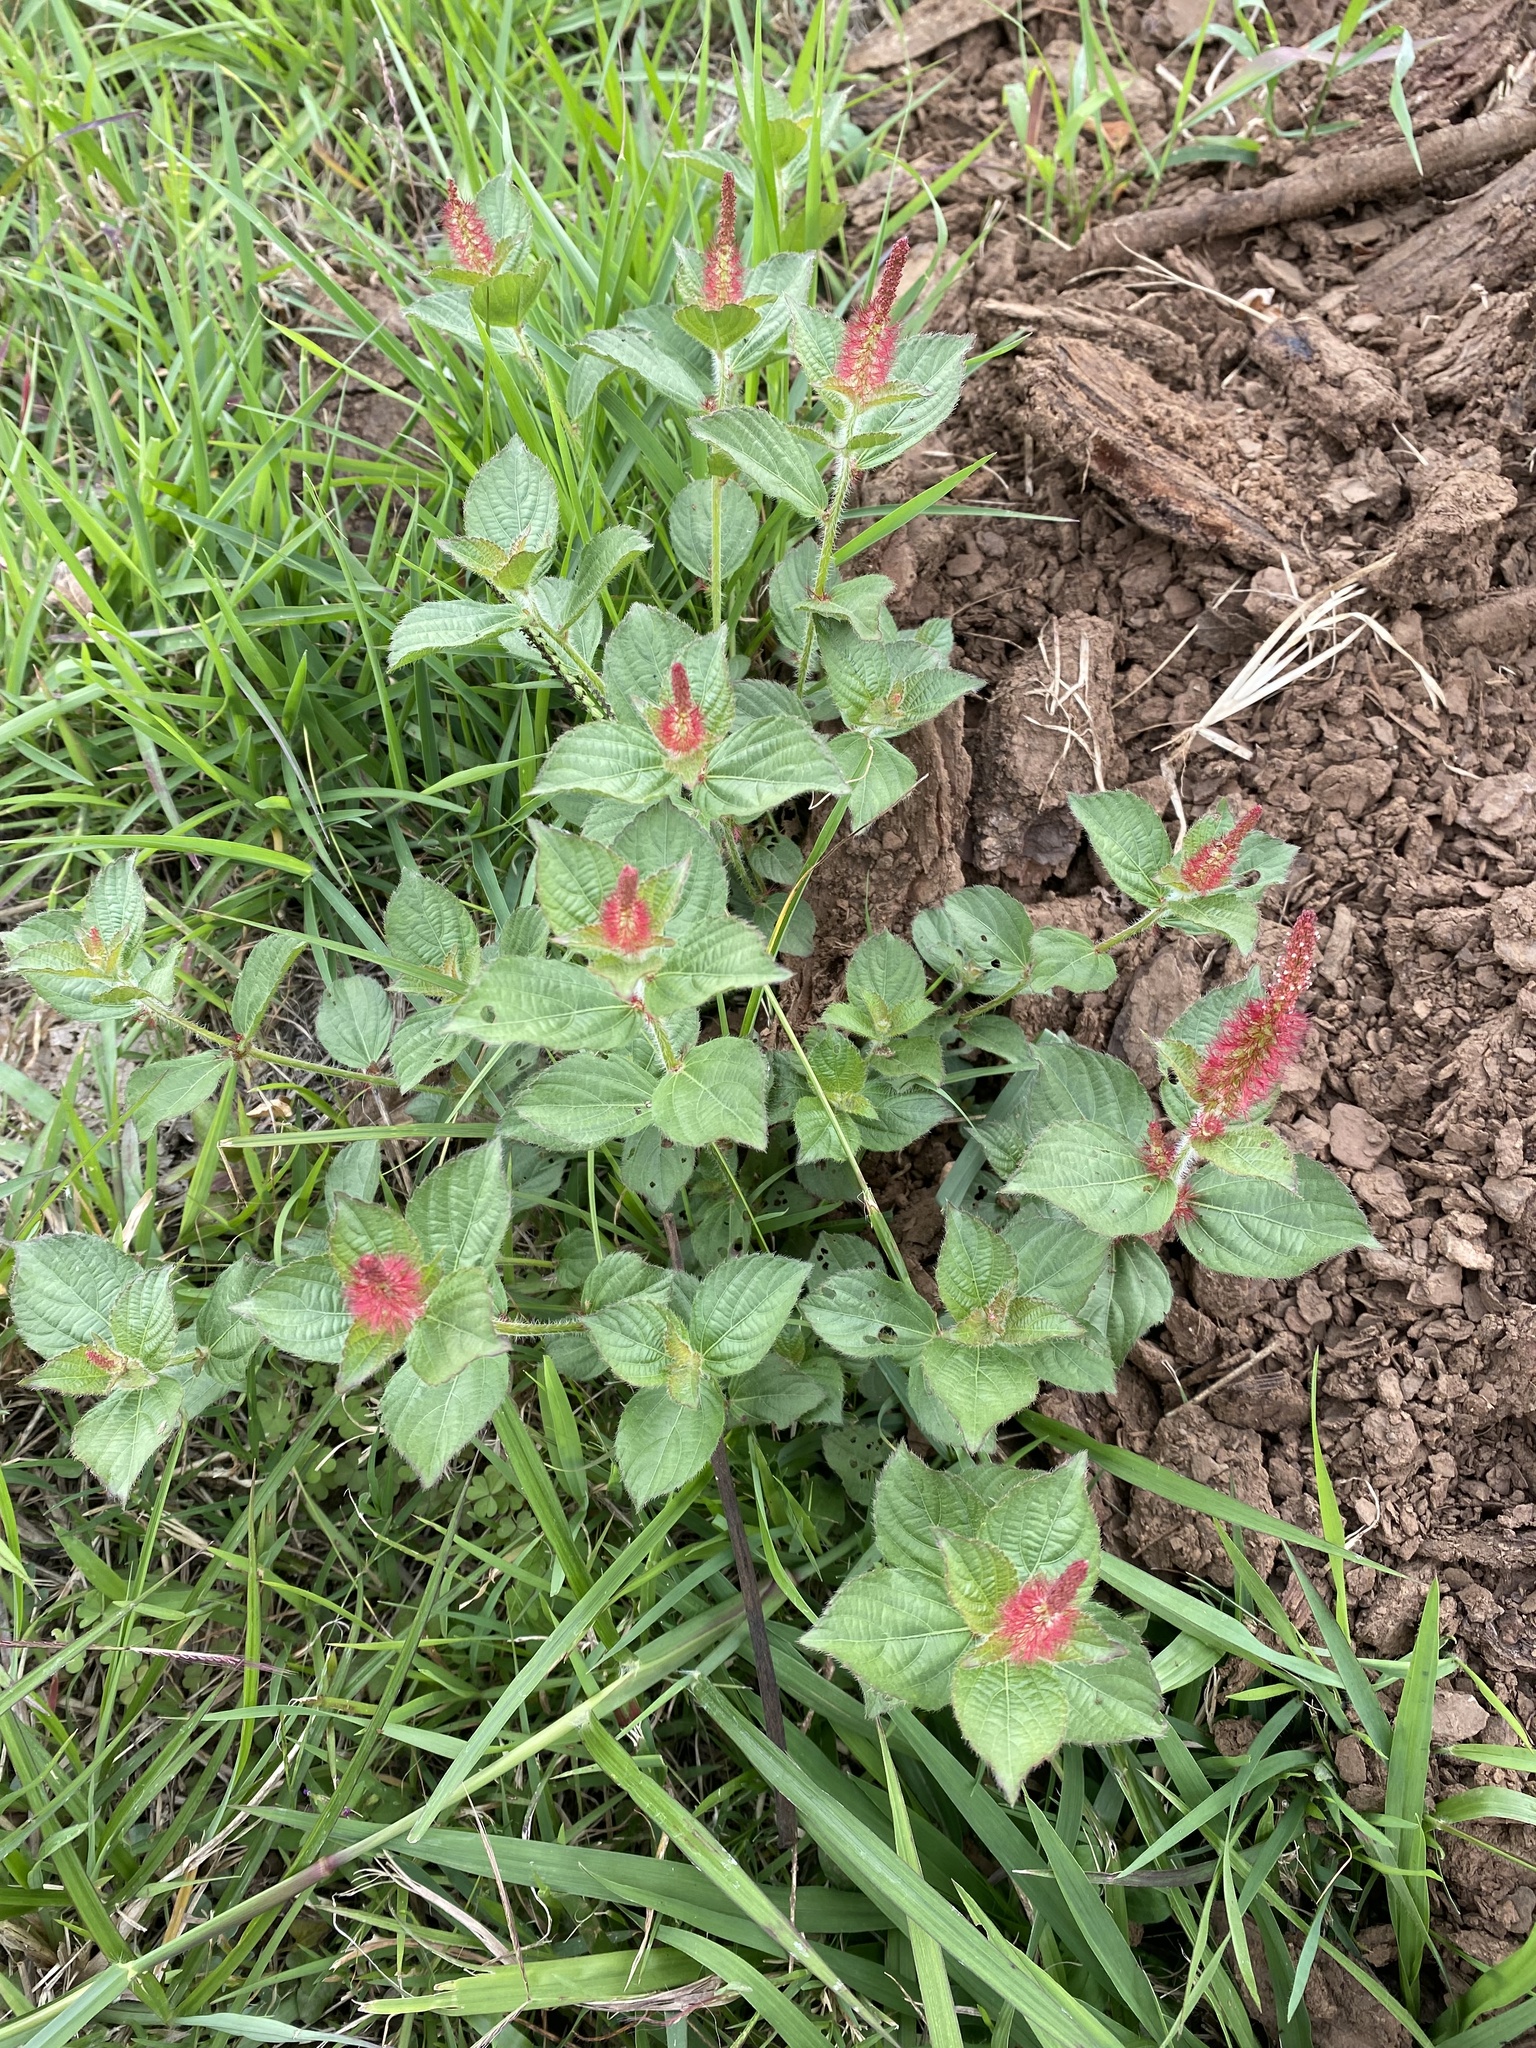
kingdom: Plantae
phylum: Tracheophyta
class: Magnoliopsida
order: Malpighiales
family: Euphorbiaceae
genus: Acalypha
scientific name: Acalypha phleoides
